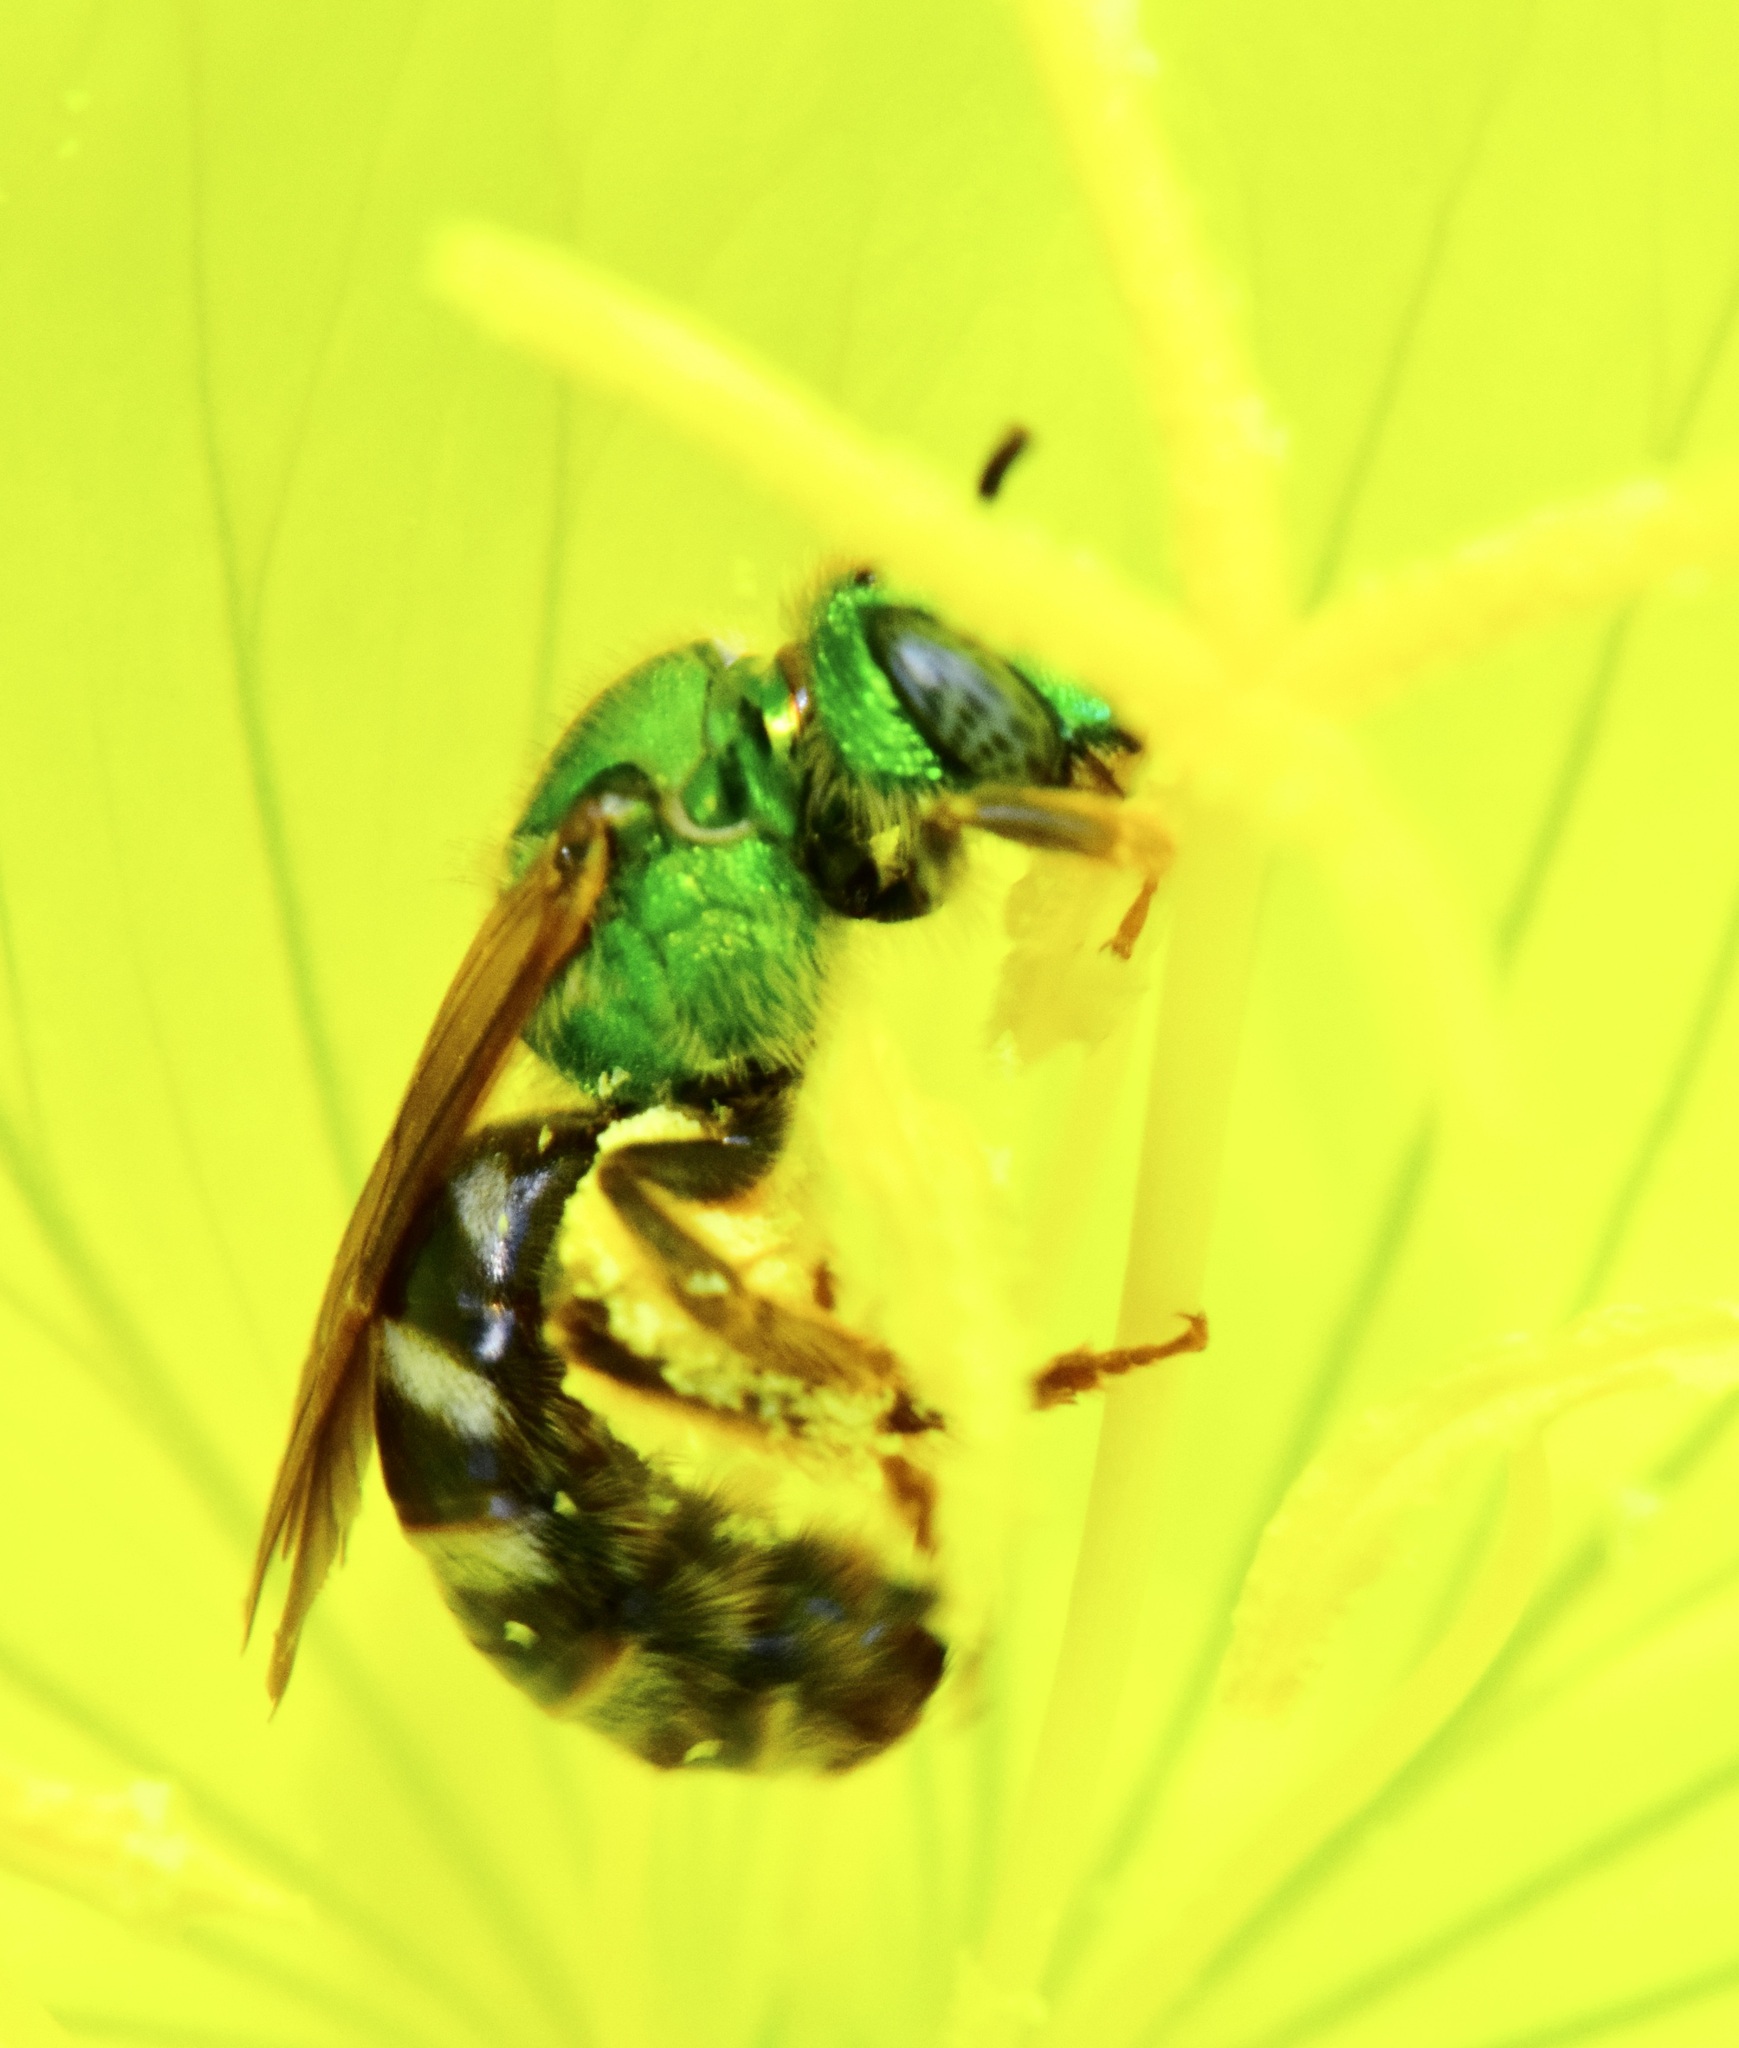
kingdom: Animalia
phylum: Arthropoda
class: Insecta
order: Hymenoptera
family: Halictidae
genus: Agapostemon
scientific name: Agapostemon virescens
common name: Bicolored striped sweat bee
